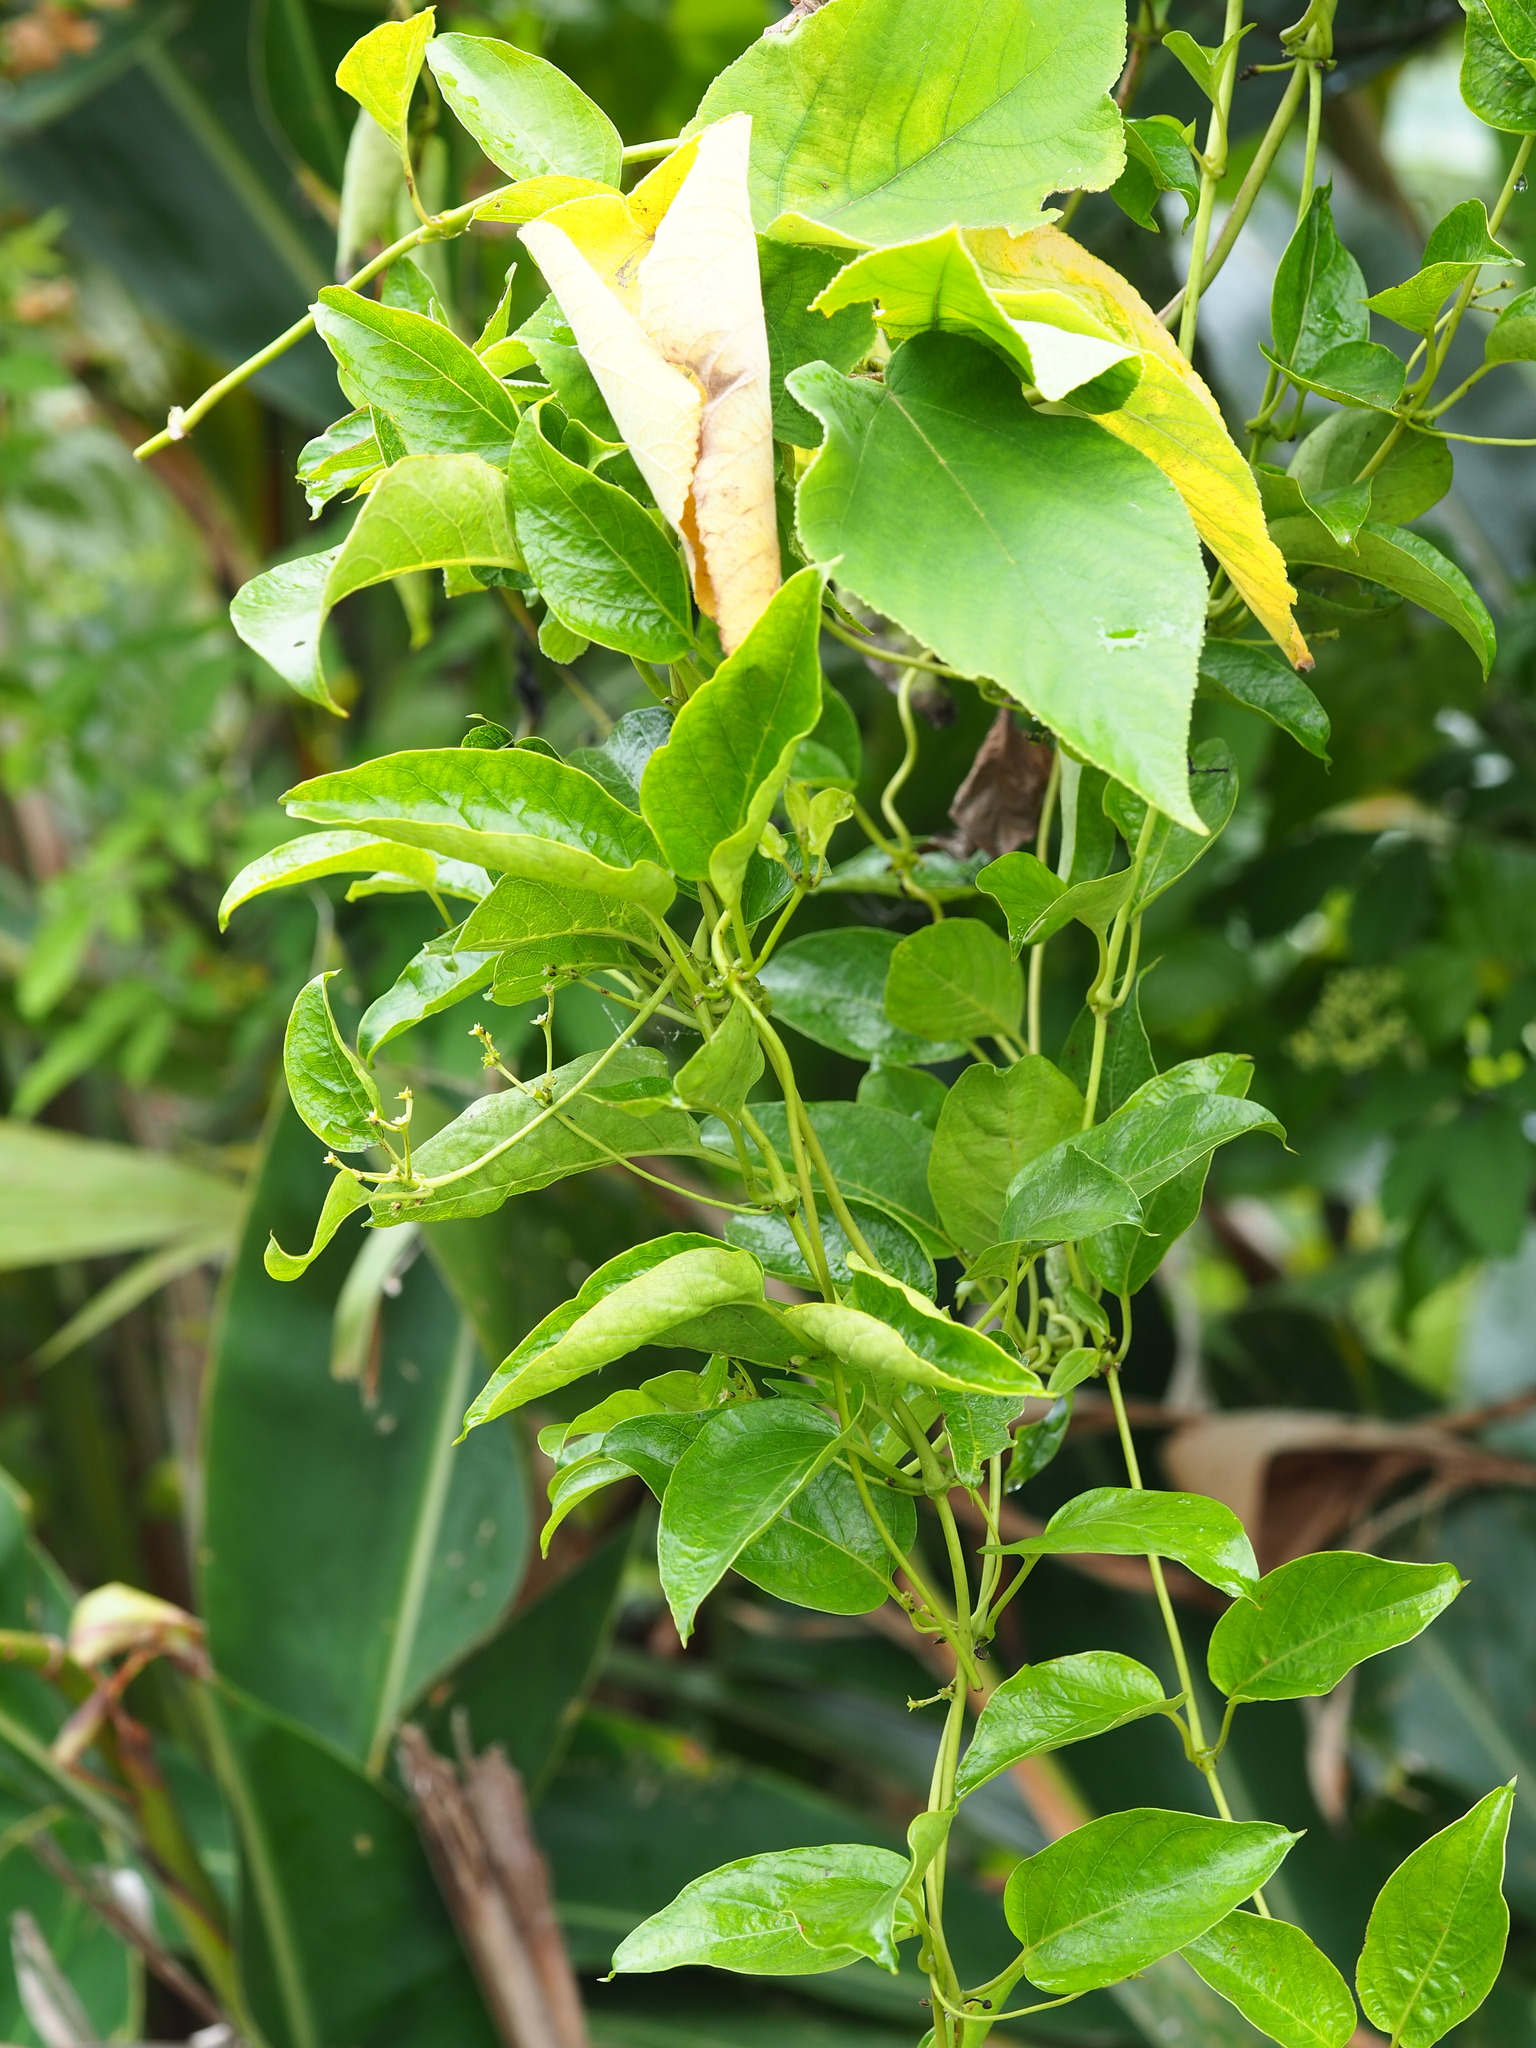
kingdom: Plantae
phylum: Tracheophyta
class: Magnoliopsida
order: Gentianales
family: Rubiaceae
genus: Paederia
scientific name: Paederia foetida
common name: Stinkvine
